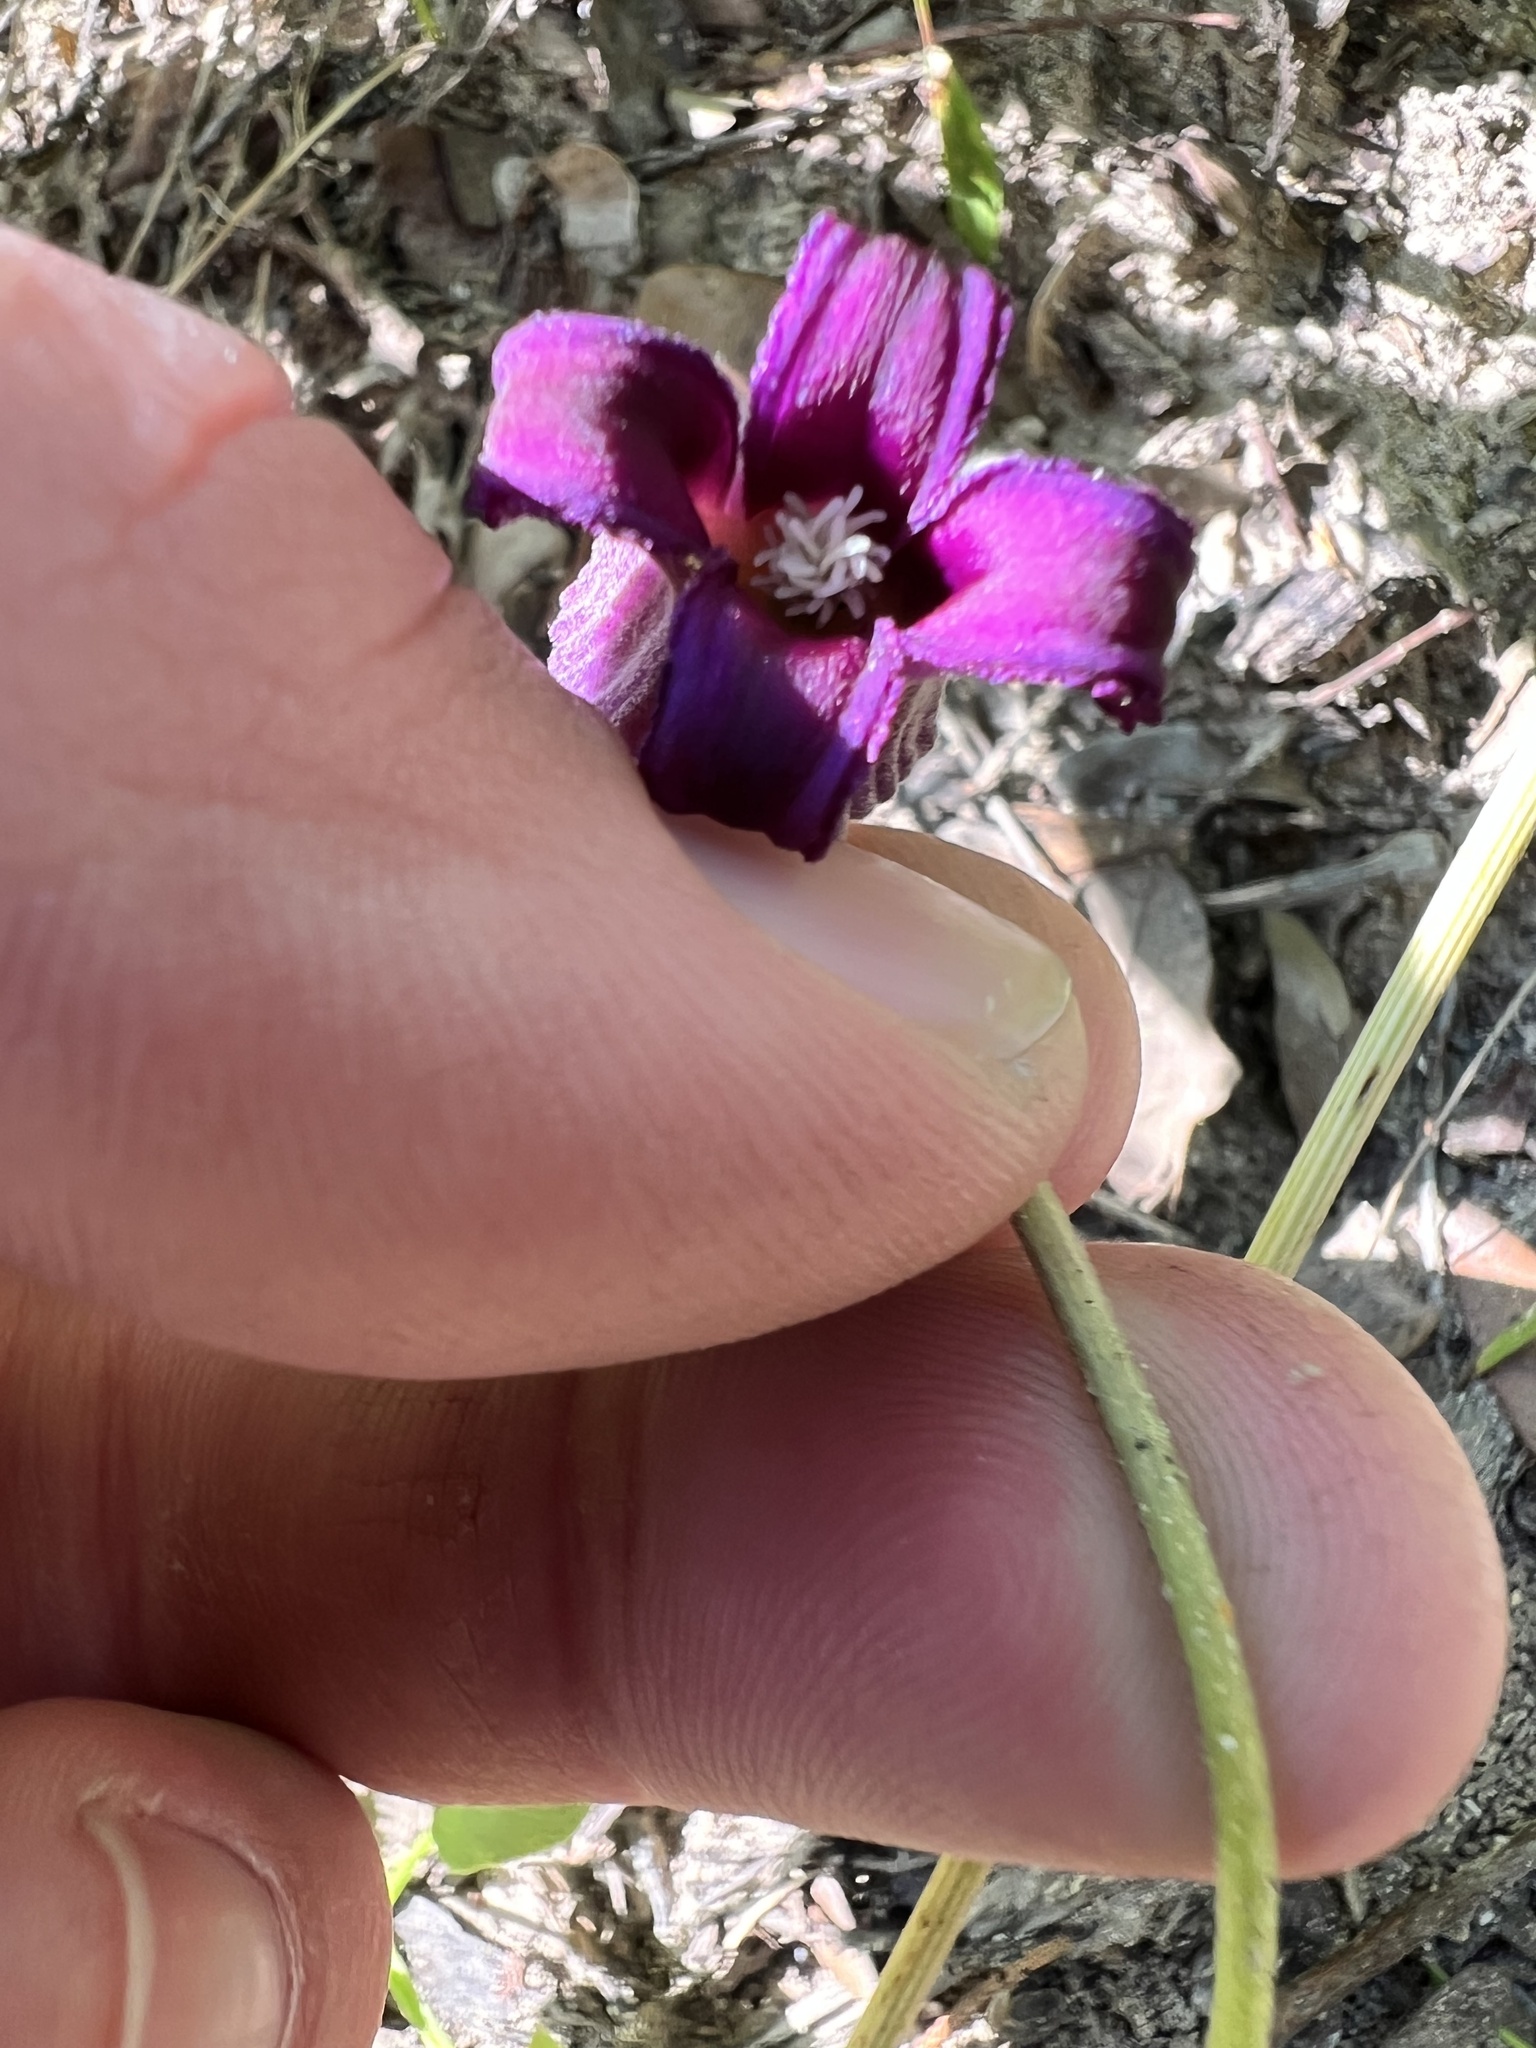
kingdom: Plantae
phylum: Tracheophyta
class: Magnoliopsida
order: Ranunculales
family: Ranunculaceae
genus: Clematis
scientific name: Clematis pitcheri
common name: Bellflower clematis
